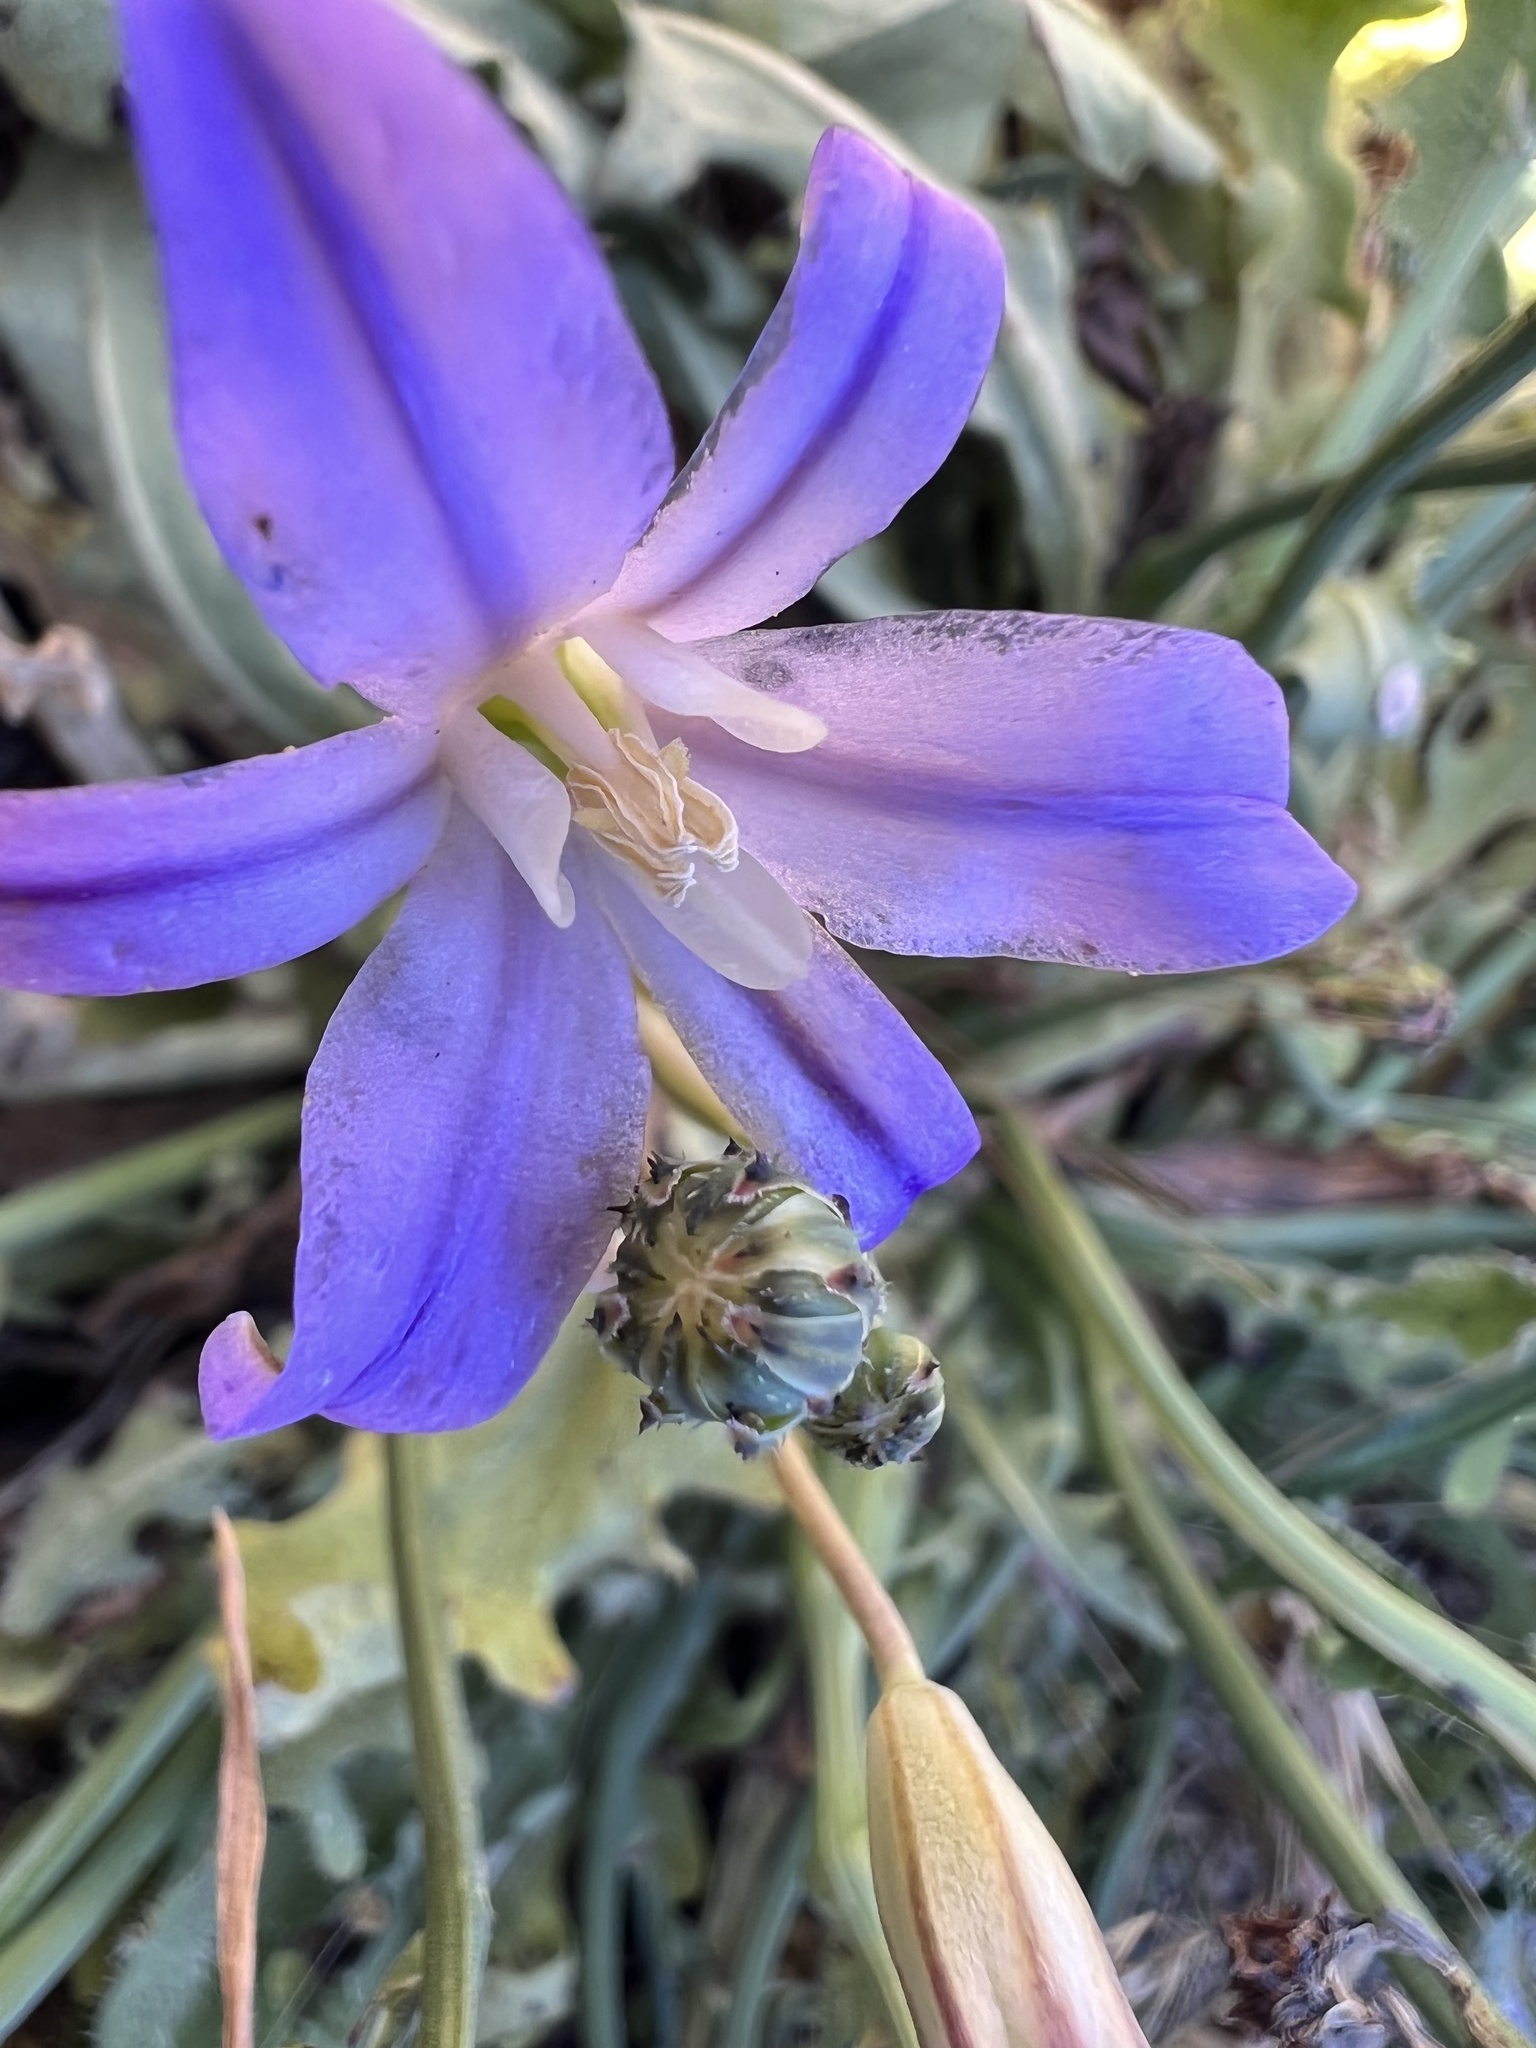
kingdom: Plantae
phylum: Tracheophyta
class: Liliopsida
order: Asparagales
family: Asparagaceae
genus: Brodiaea
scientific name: Brodiaea coronaria
